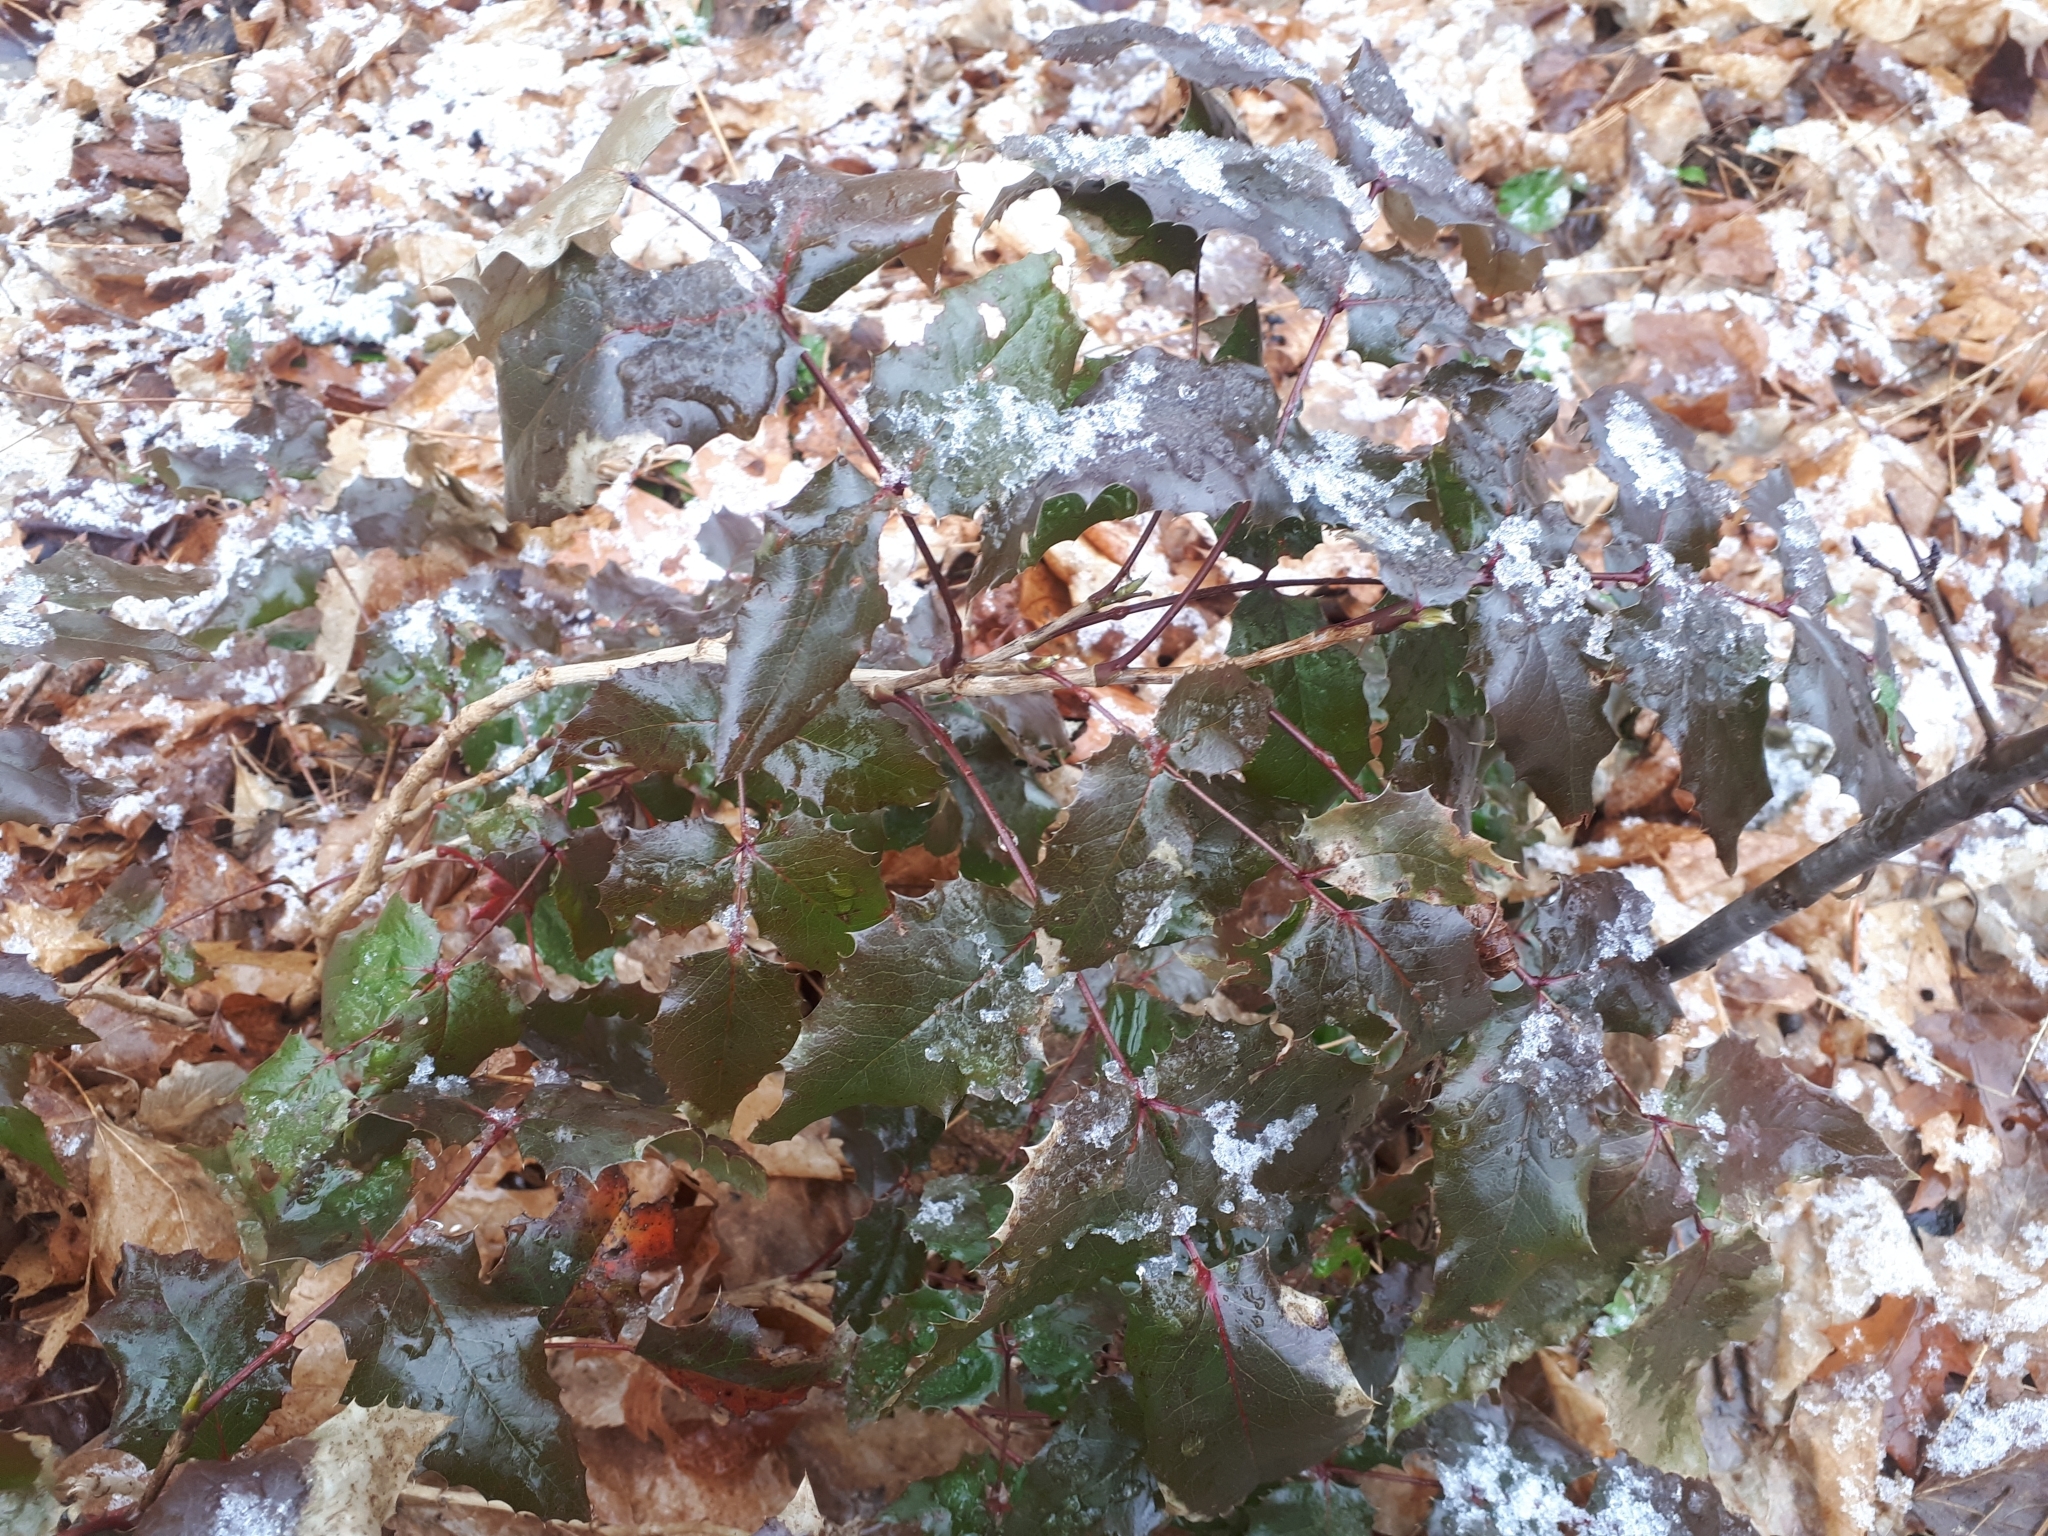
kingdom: Plantae
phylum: Tracheophyta
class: Magnoliopsida
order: Ranunculales
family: Berberidaceae
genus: Mahonia
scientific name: Mahonia aquifolium
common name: Oregon-grape
